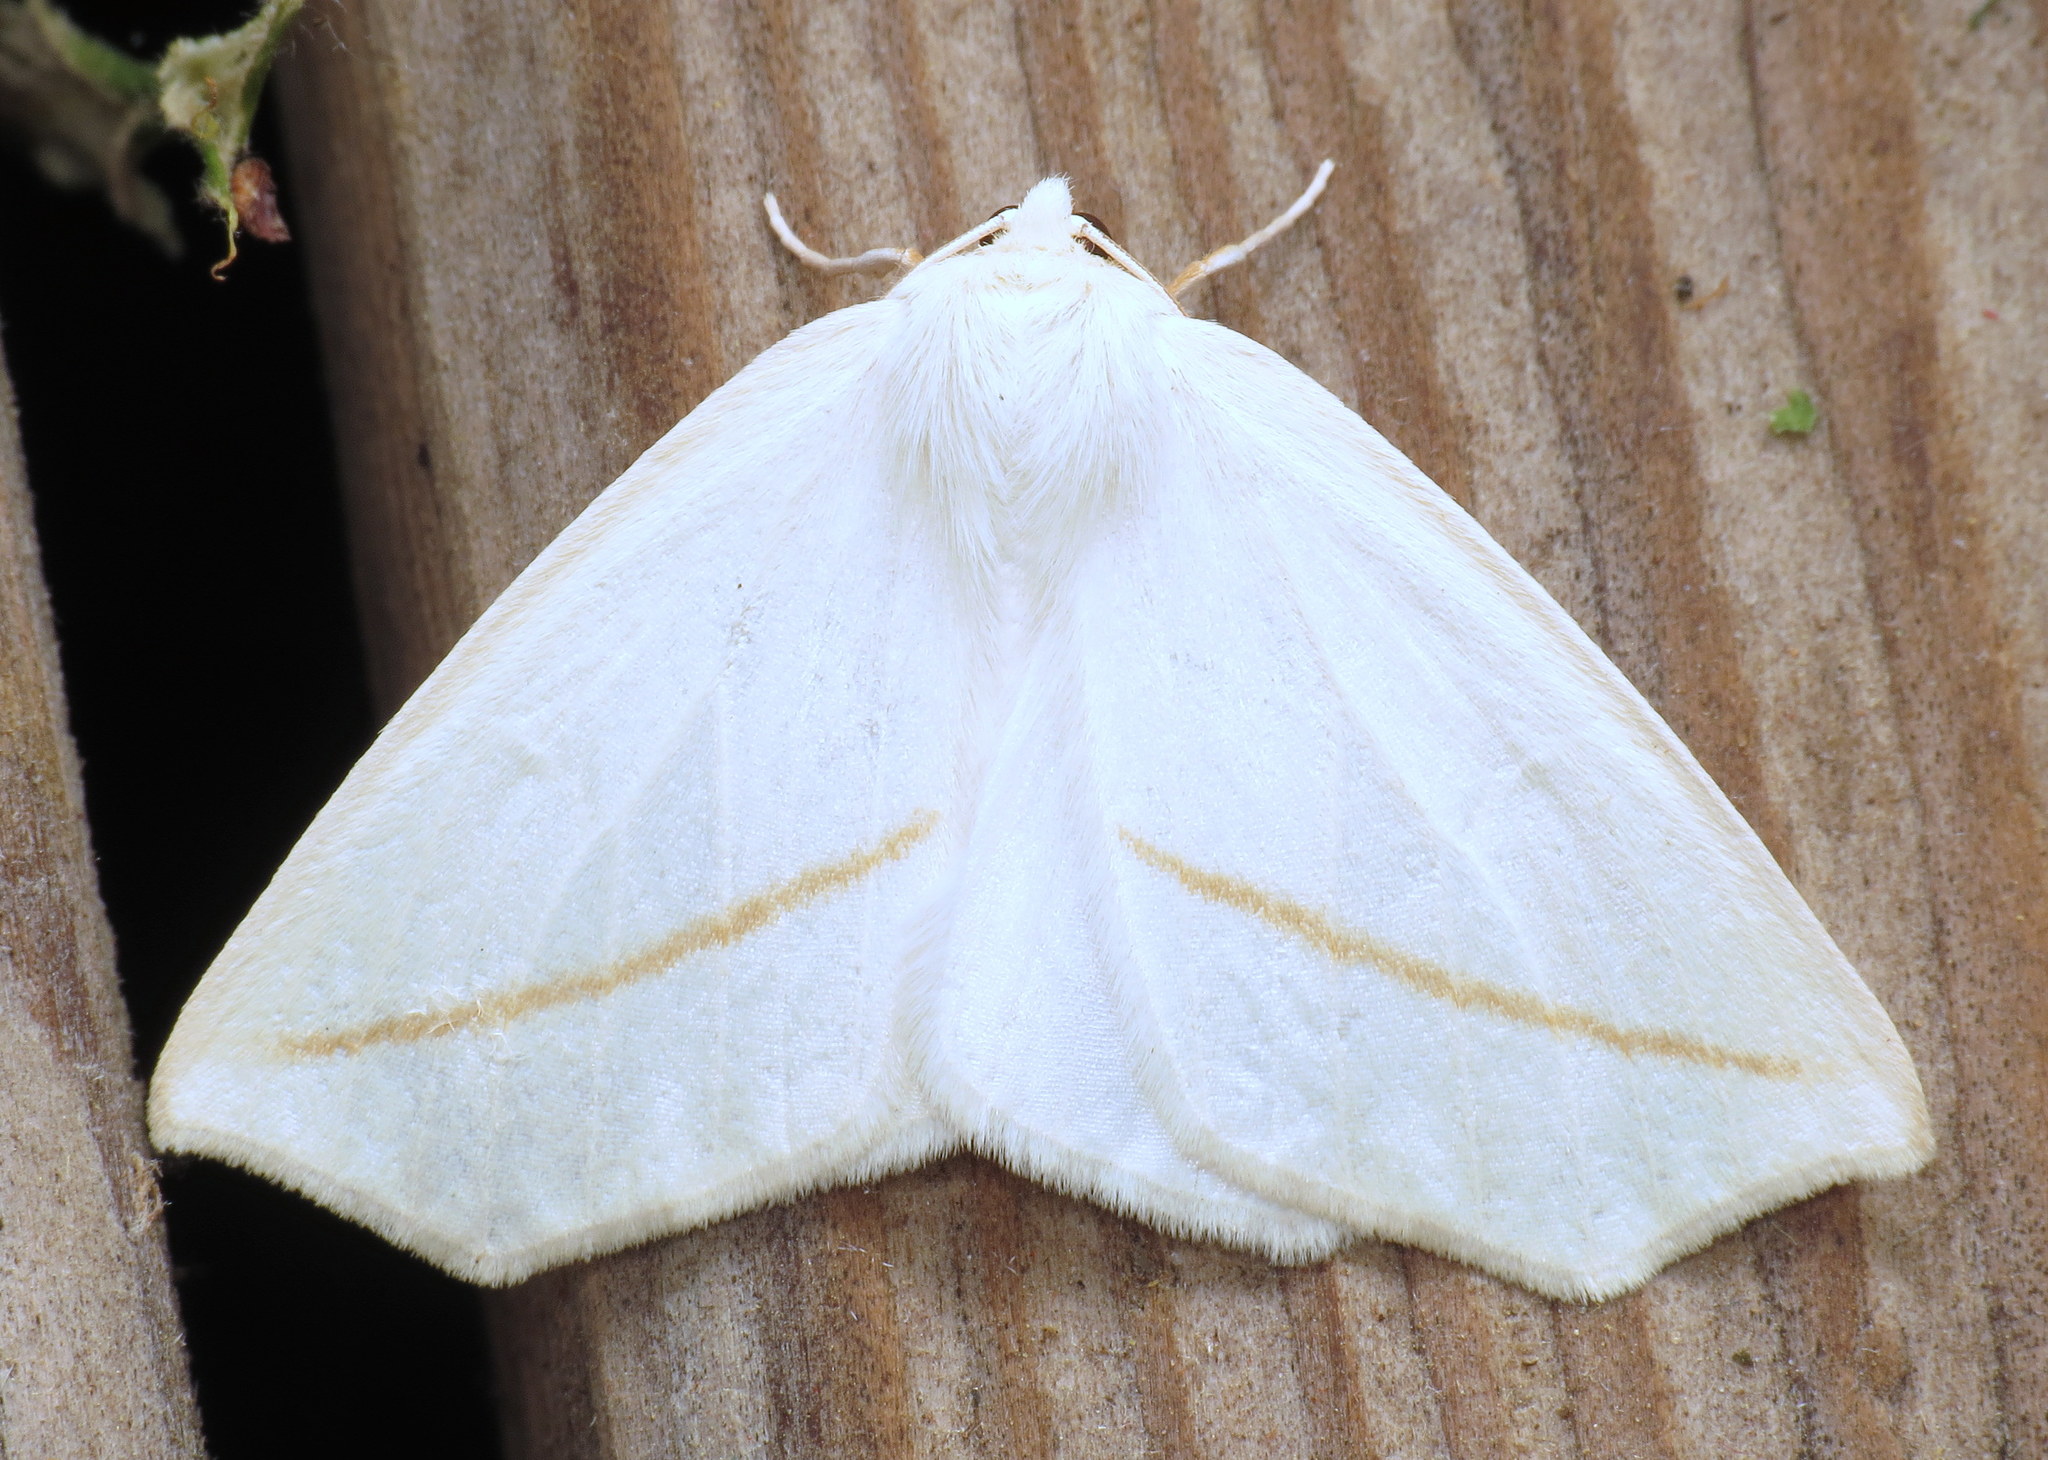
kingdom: Animalia
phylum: Arthropoda
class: Insecta
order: Lepidoptera
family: Geometridae
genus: Tetracis
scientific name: Tetracis cachexiata
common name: White slant-line
